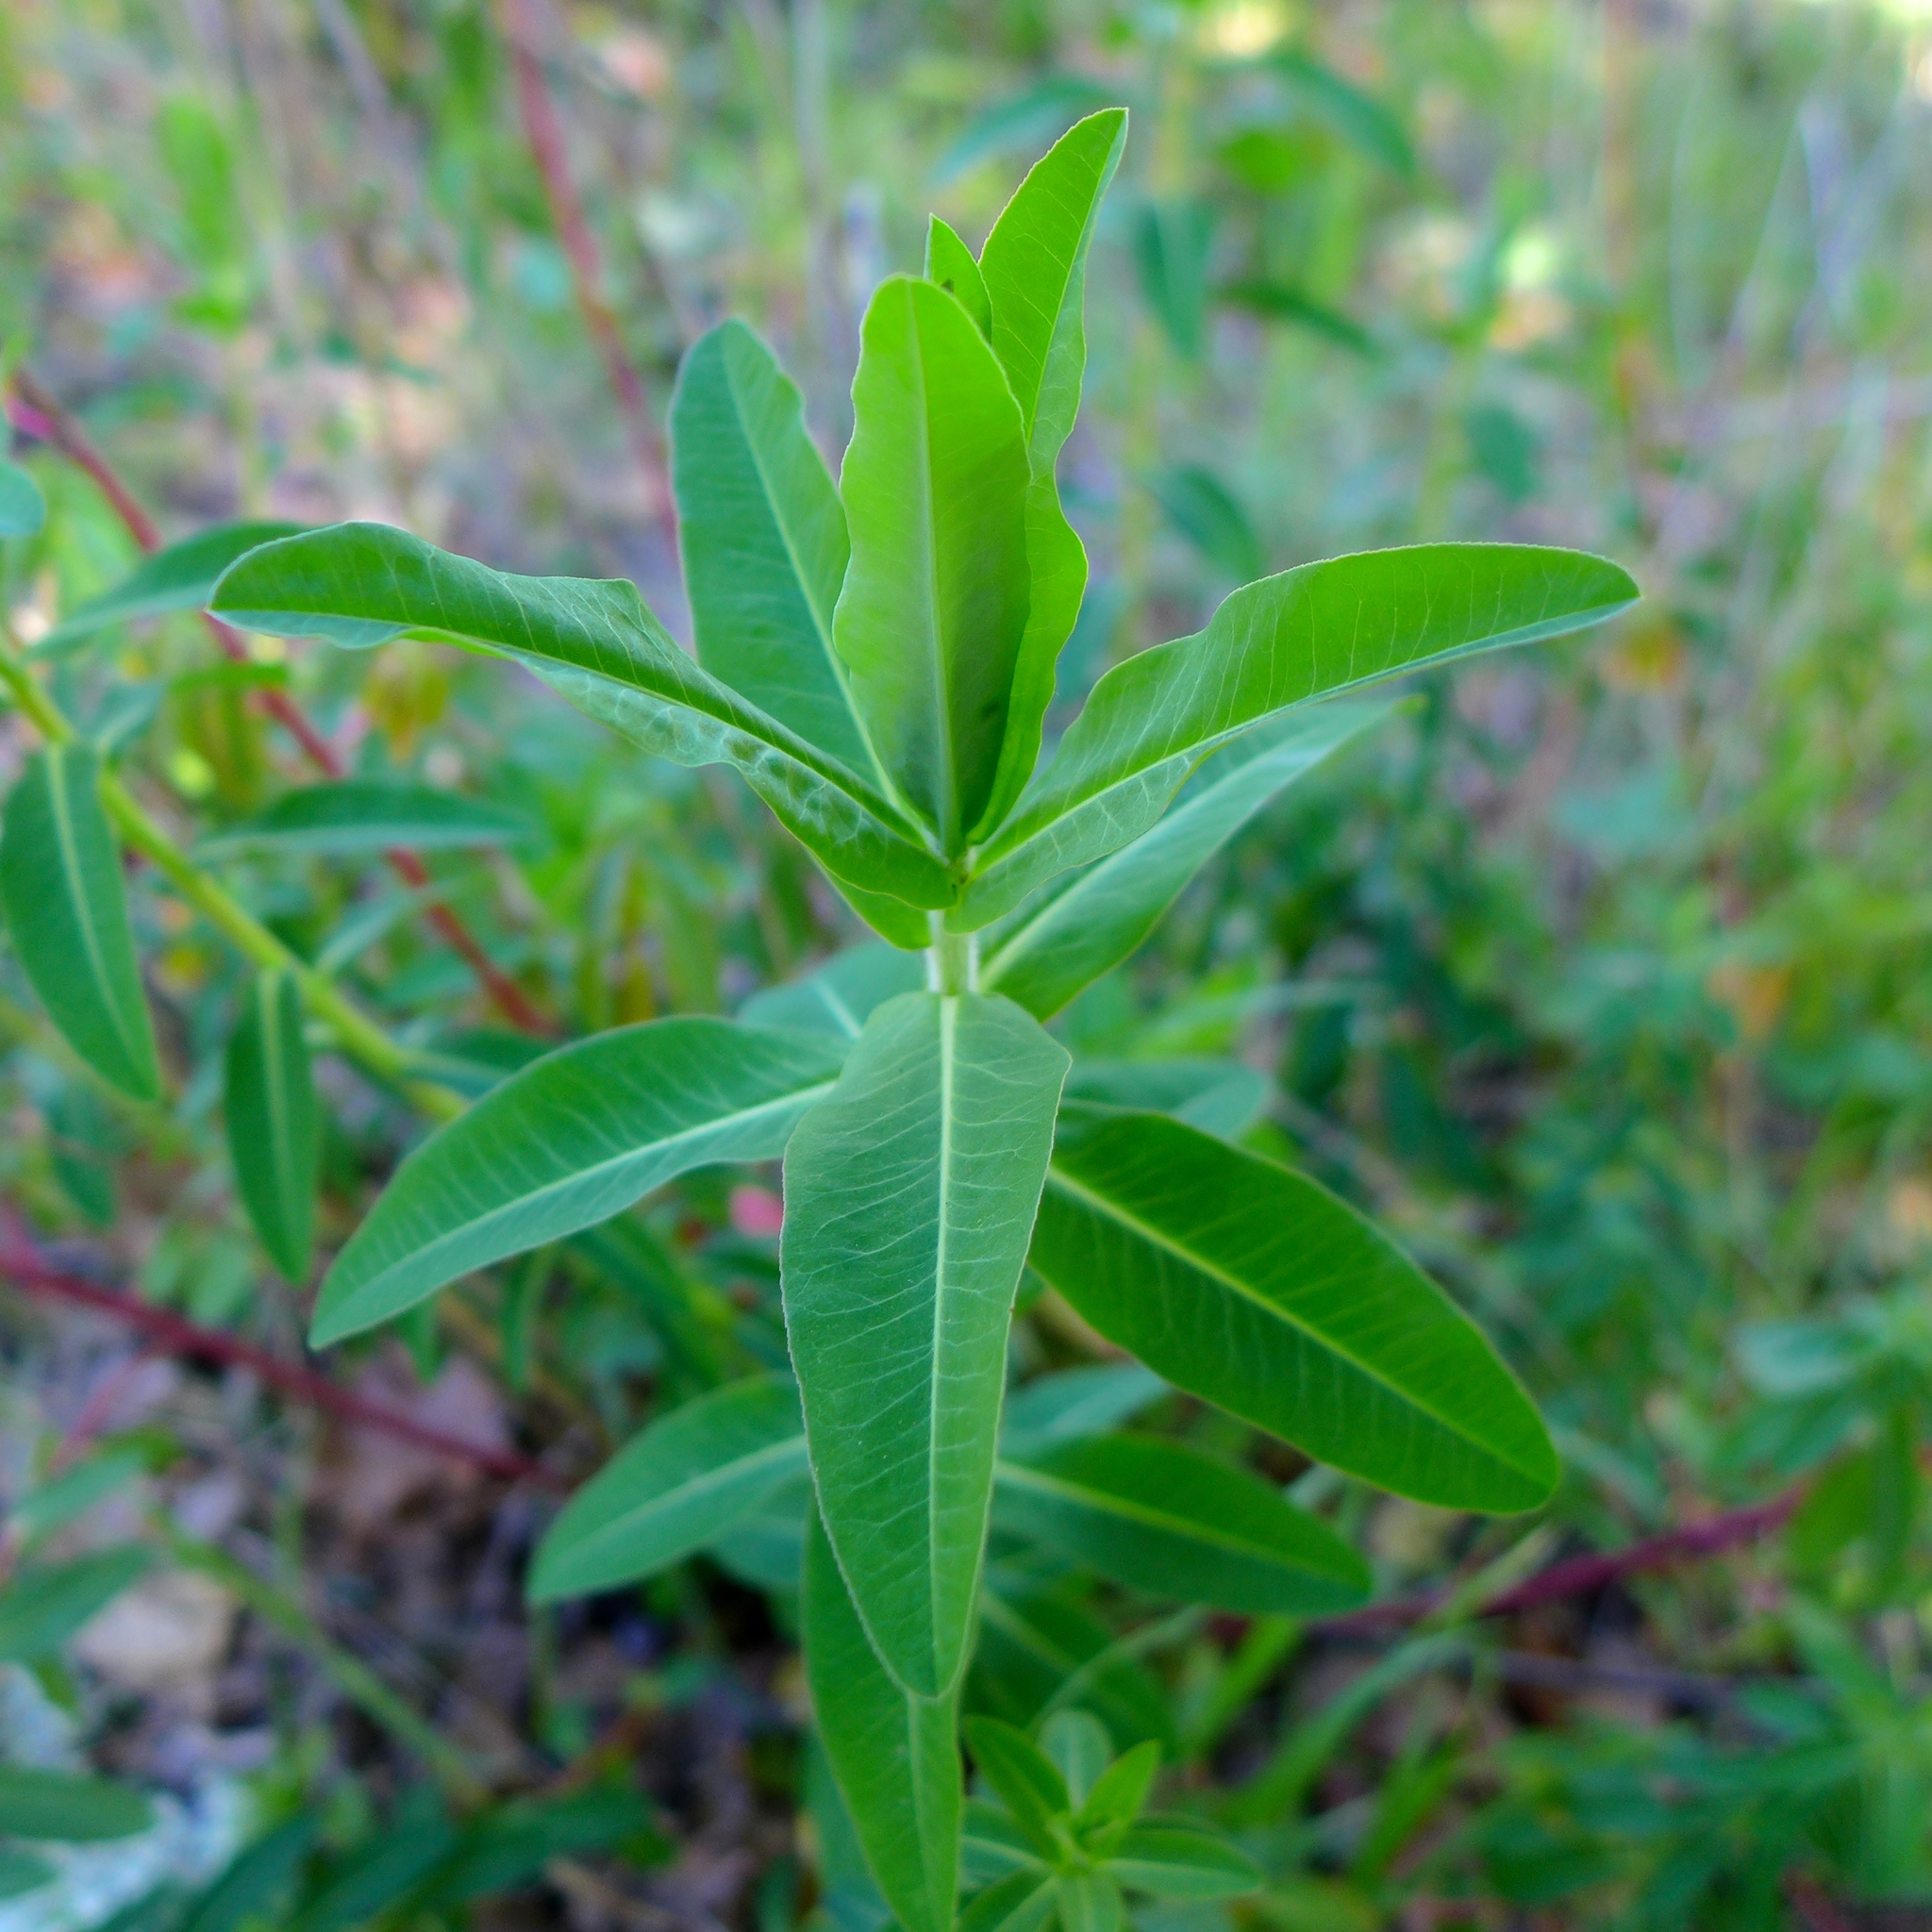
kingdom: Plantae
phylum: Tracheophyta
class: Magnoliopsida
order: Malpighiales
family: Euphorbiaceae
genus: Euphorbia
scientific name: Euphorbia oblongata
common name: Balkan spurge
